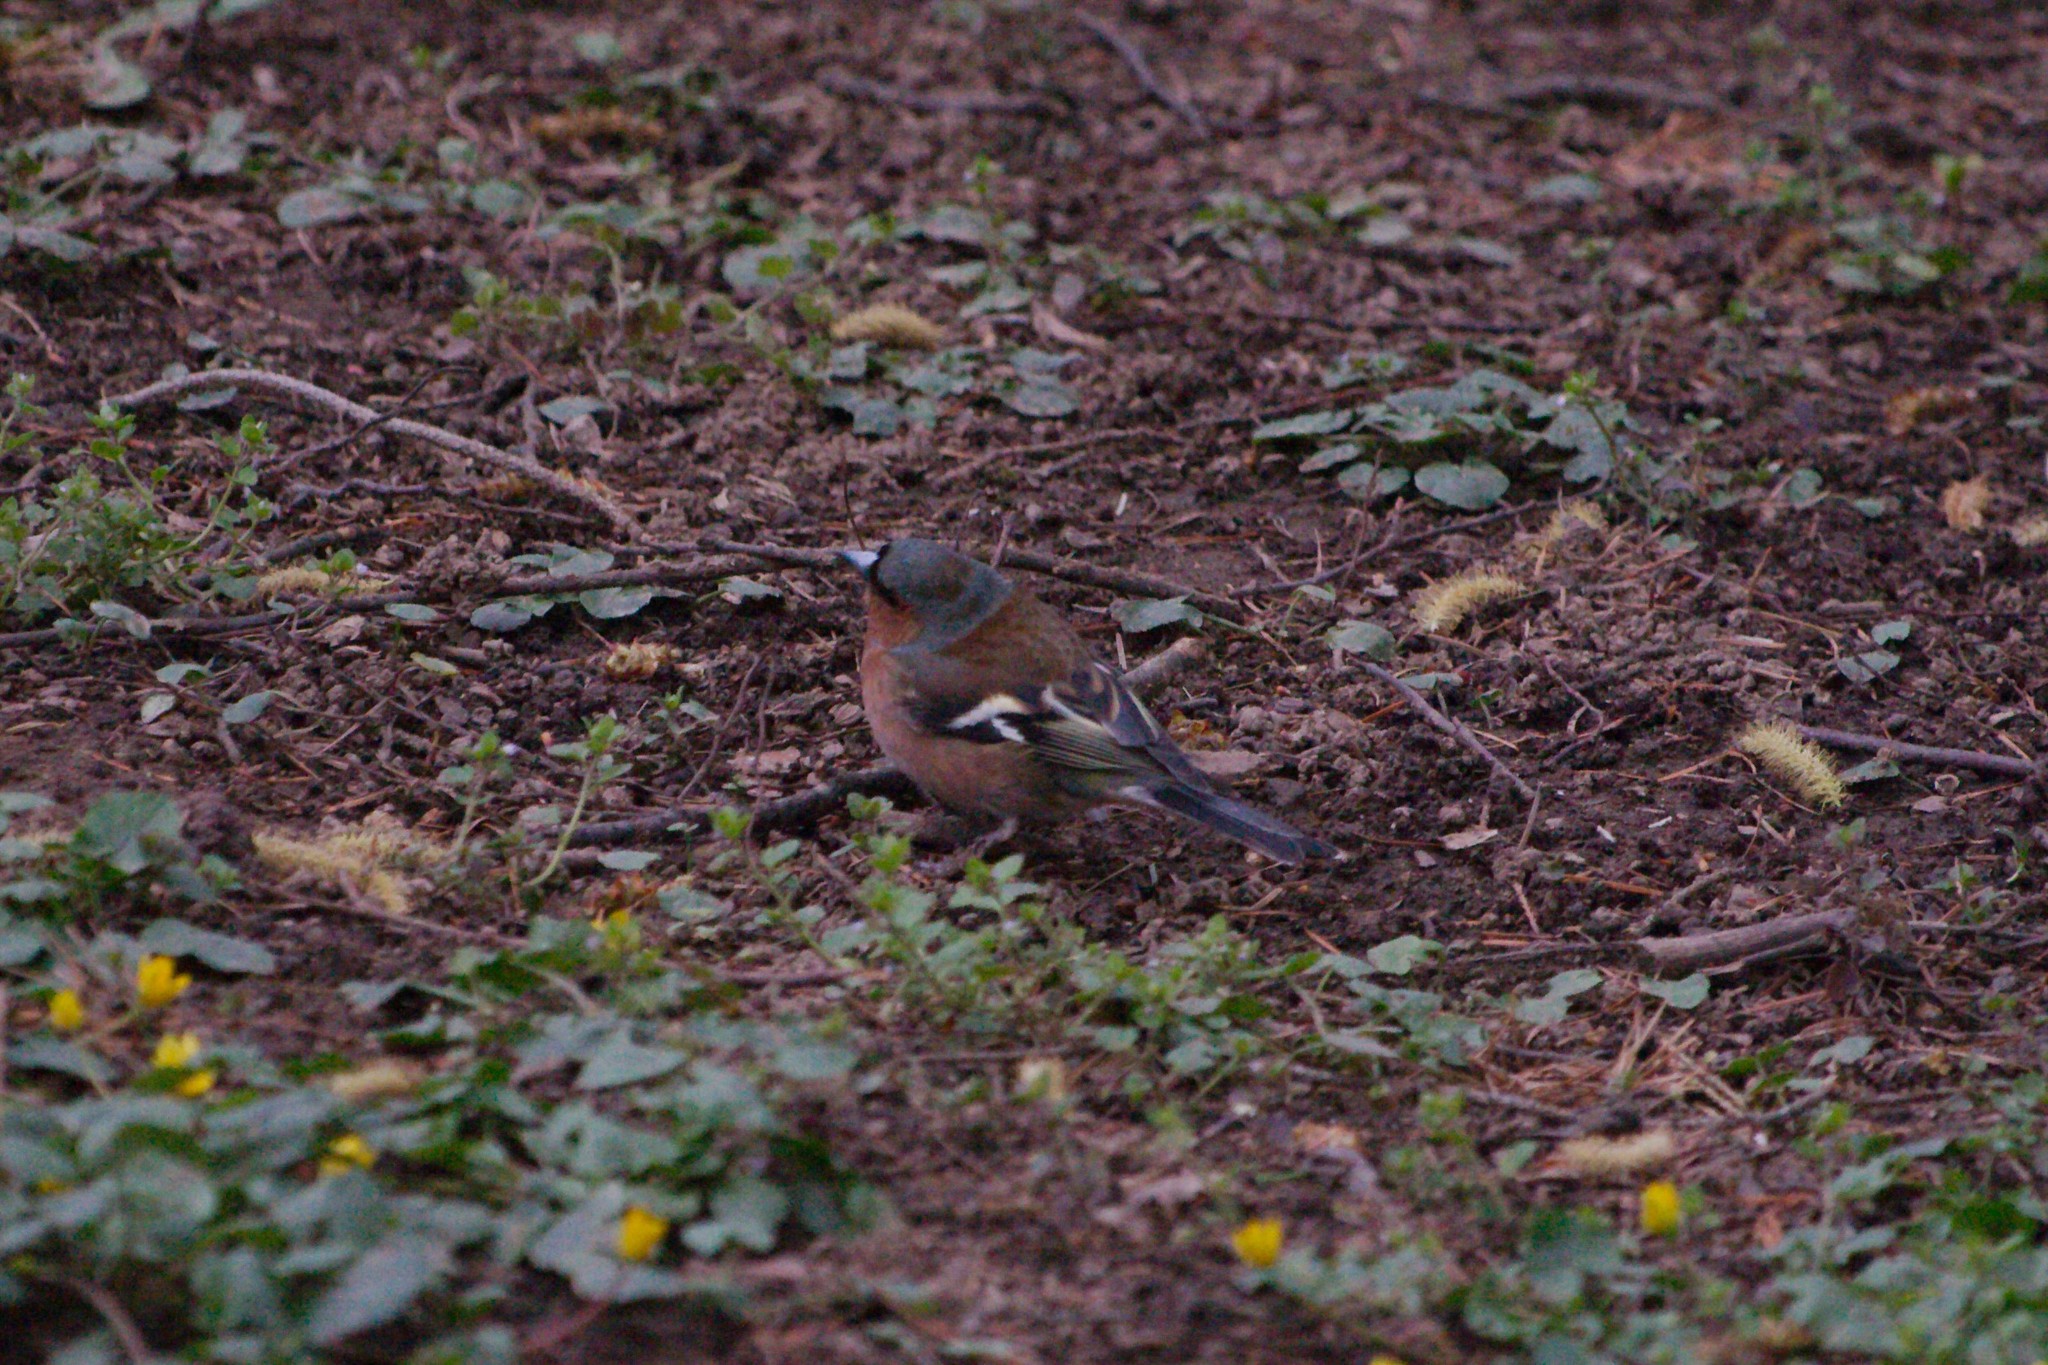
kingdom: Animalia
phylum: Chordata
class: Aves
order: Passeriformes
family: Fringillidae
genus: Fringilla
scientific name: Fringilla coelebs
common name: Common chaffinch
